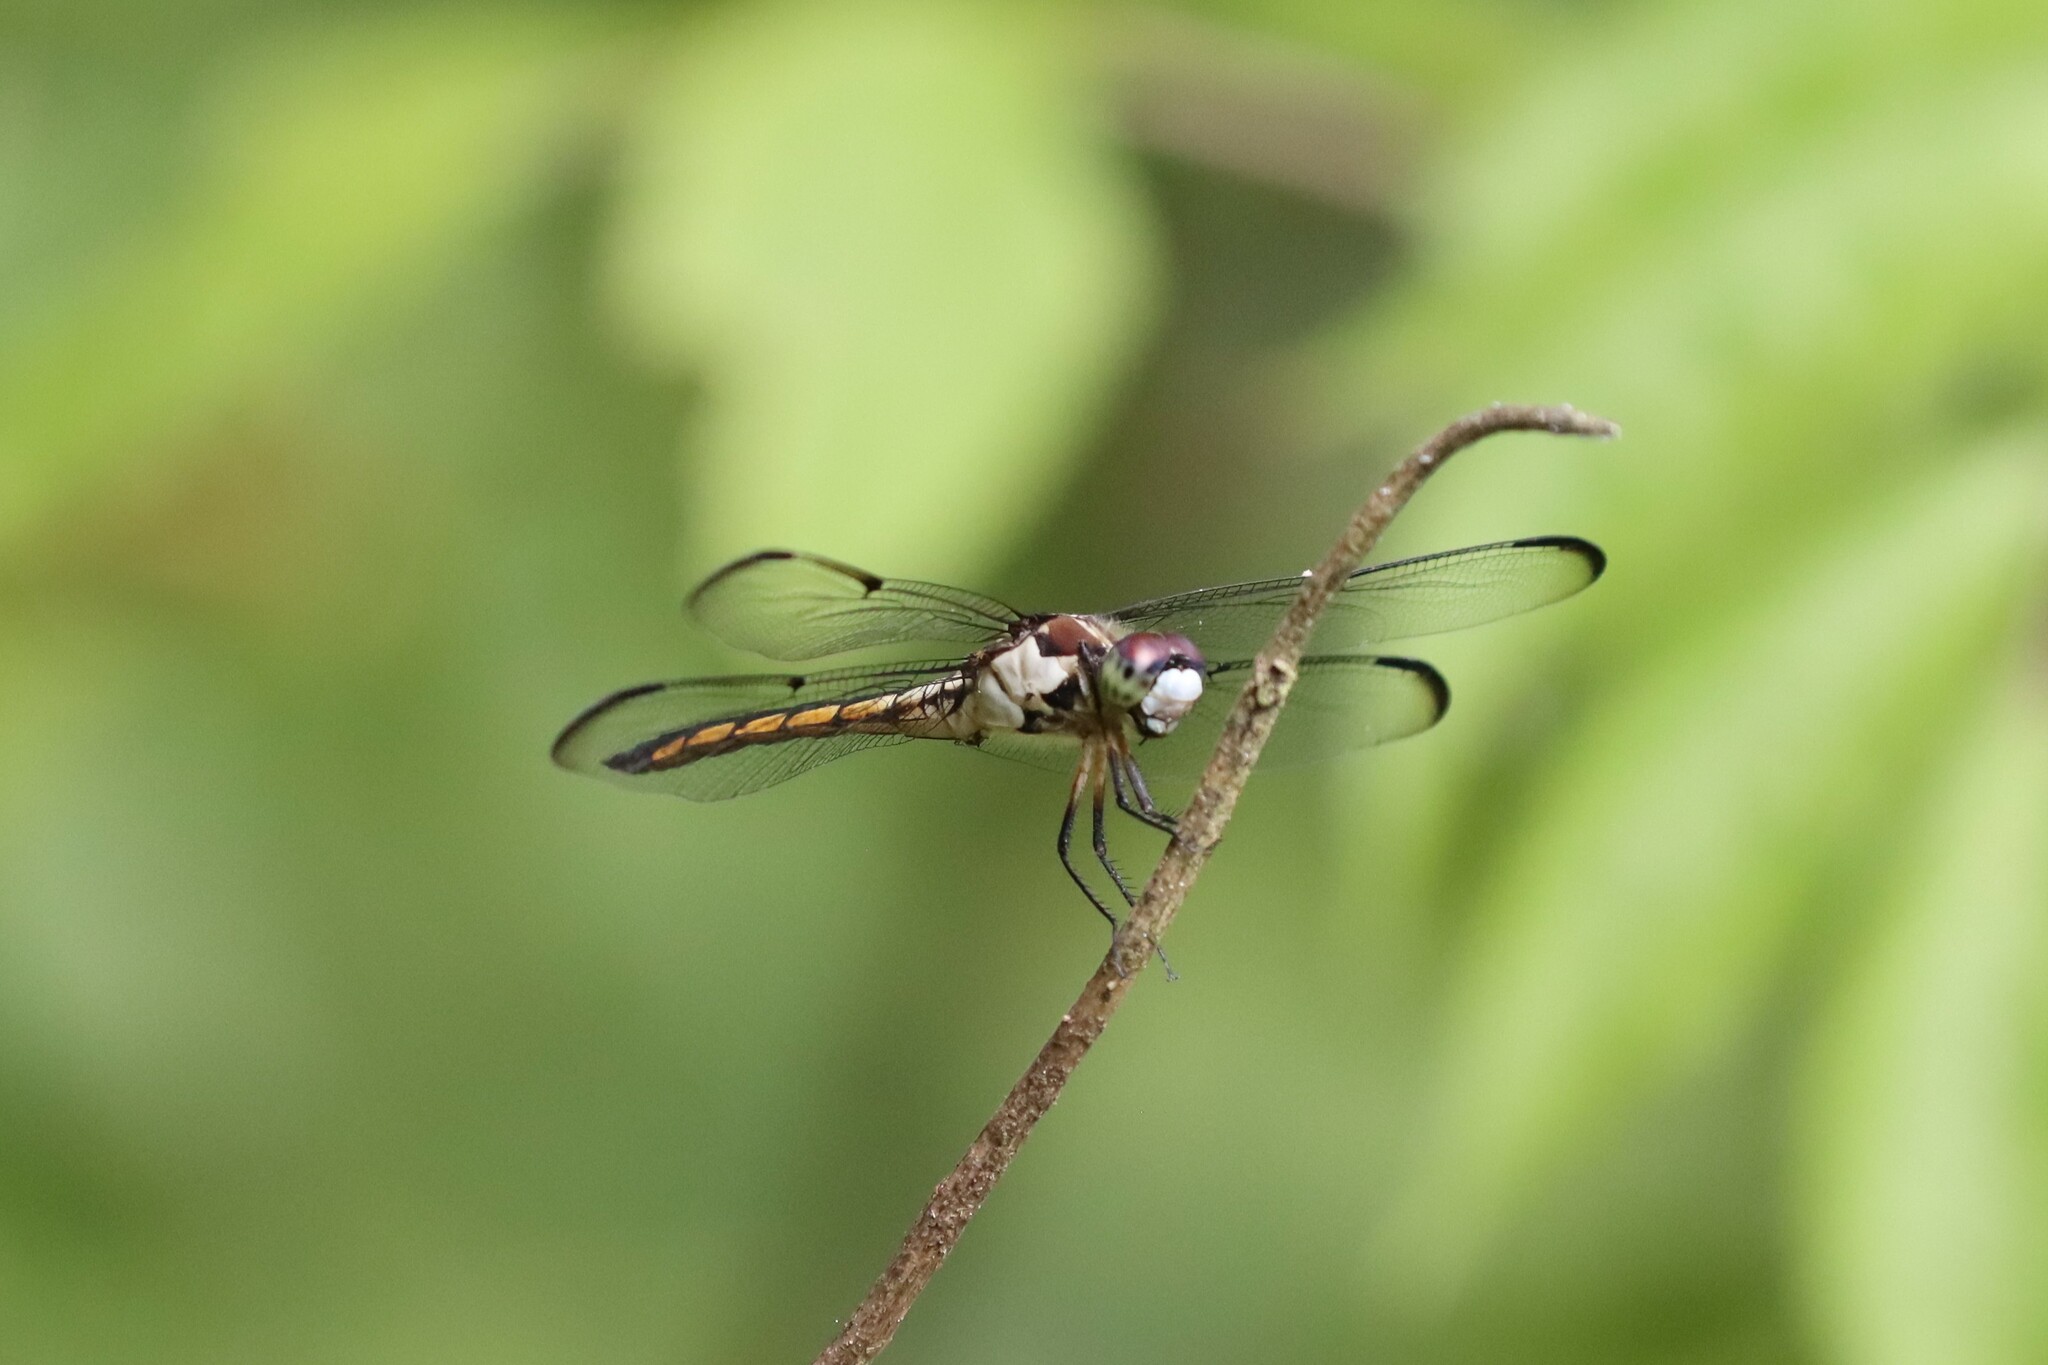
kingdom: Animalia
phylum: Arthropoda
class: Insecta
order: Odonata
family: Libellulidae
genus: Libellula
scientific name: Libellula vibrans
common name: Great blue skimmer
